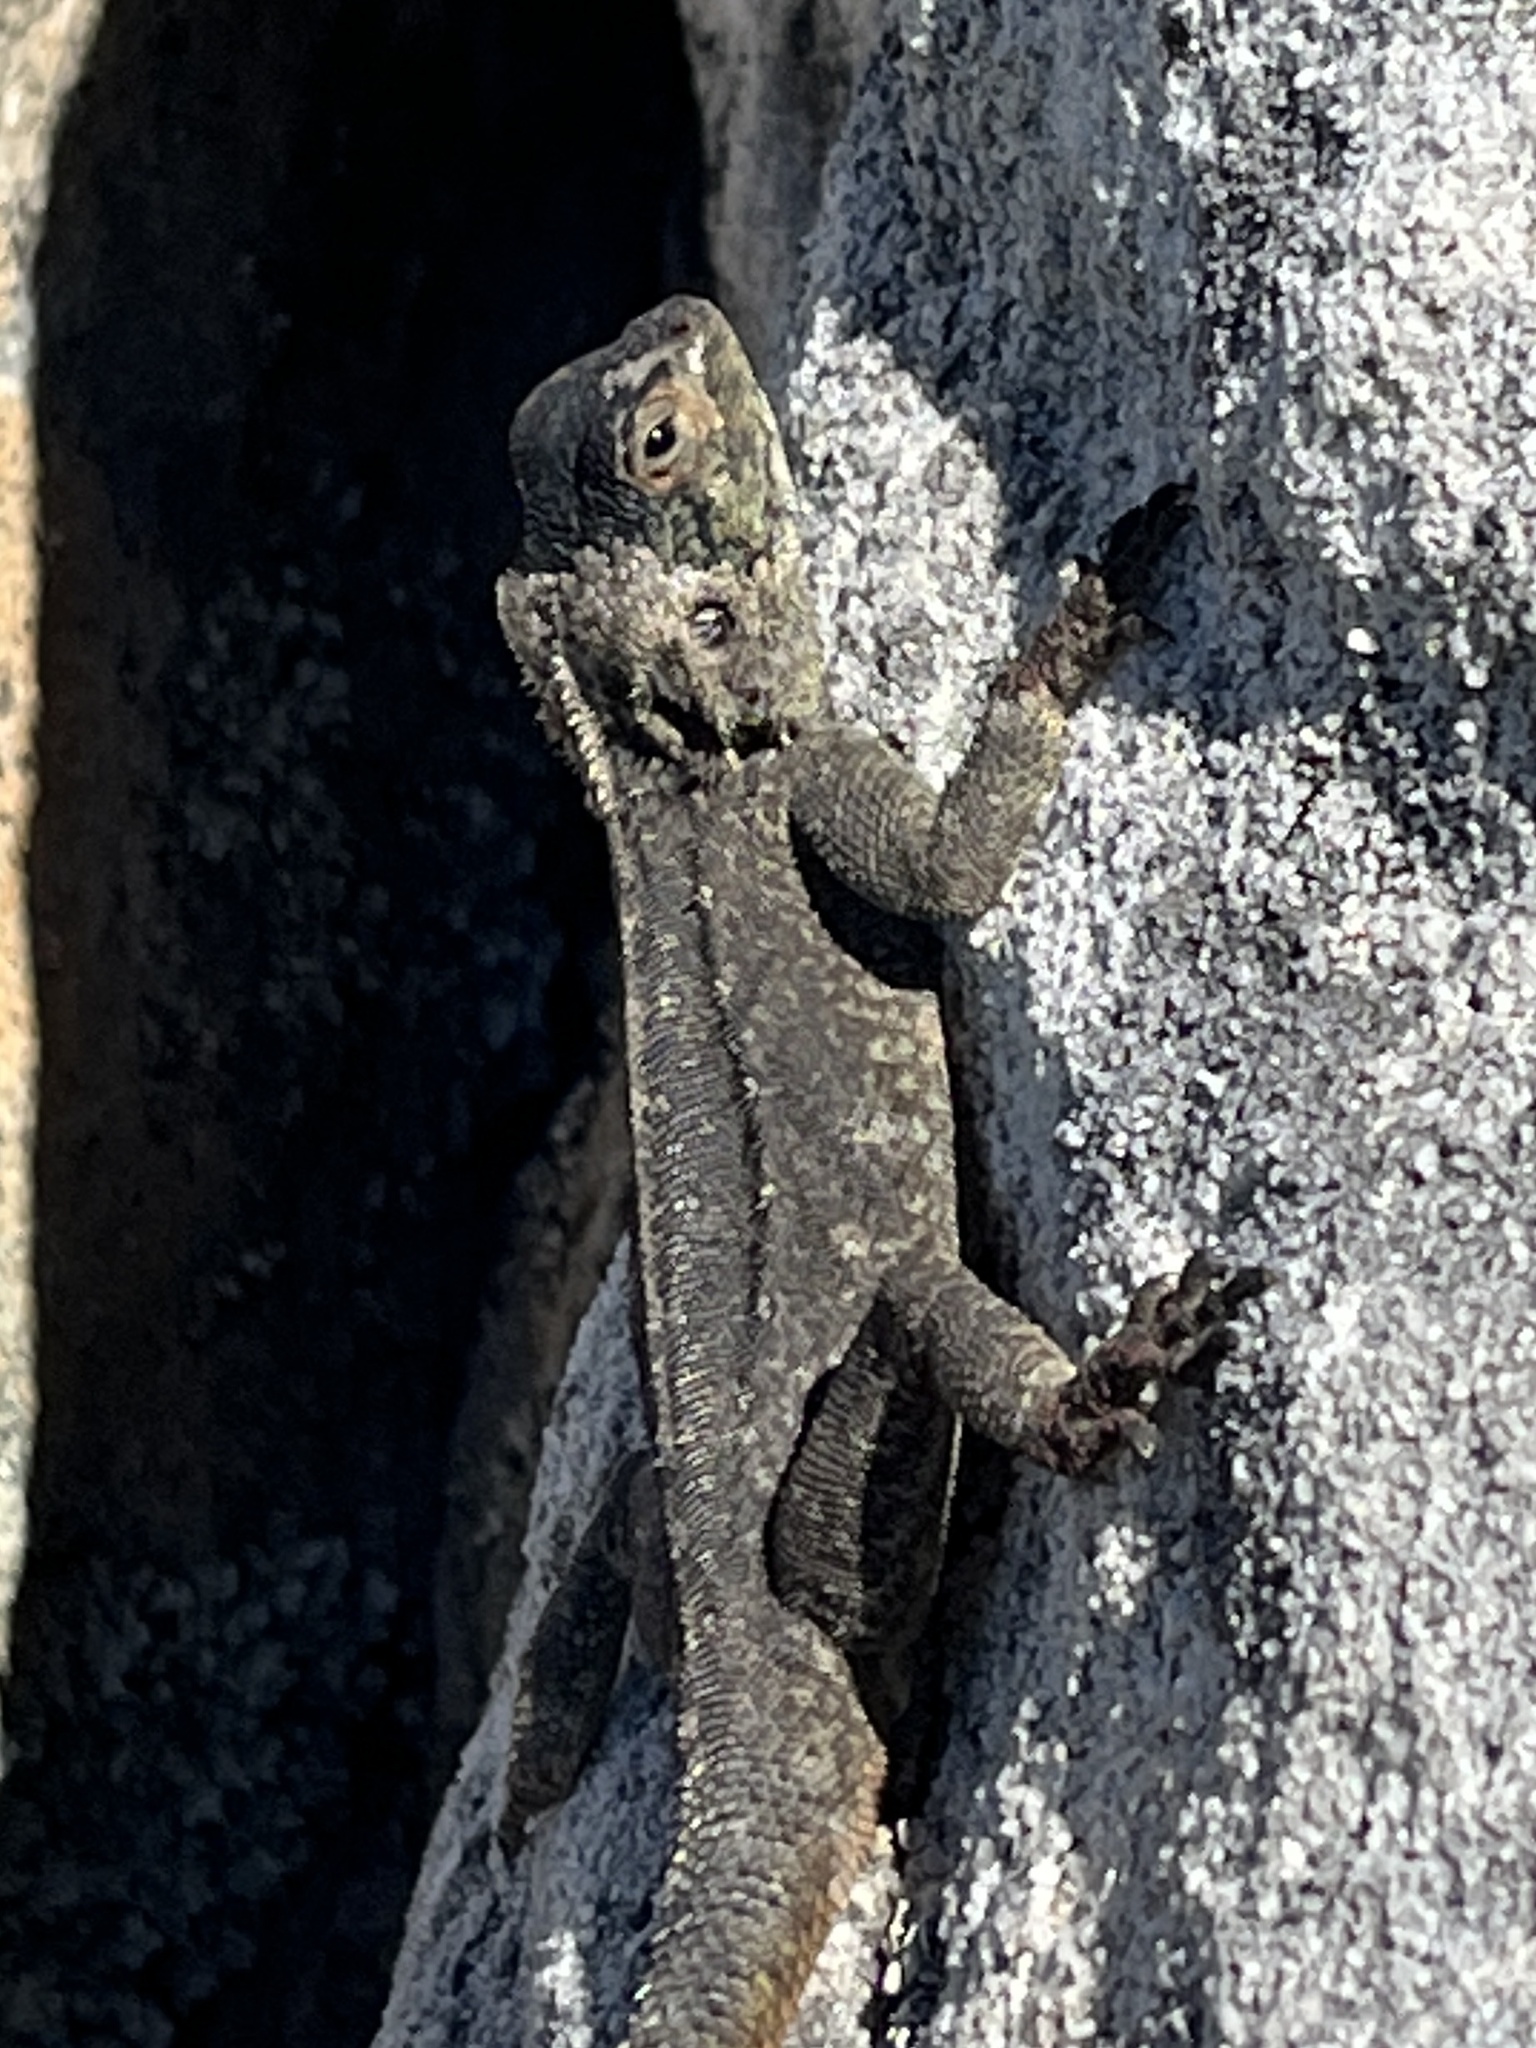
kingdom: Animalia
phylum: Chordata
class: Squamata
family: Agamidae
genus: Agama
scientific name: Agama atra
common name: Southern african rock agama
